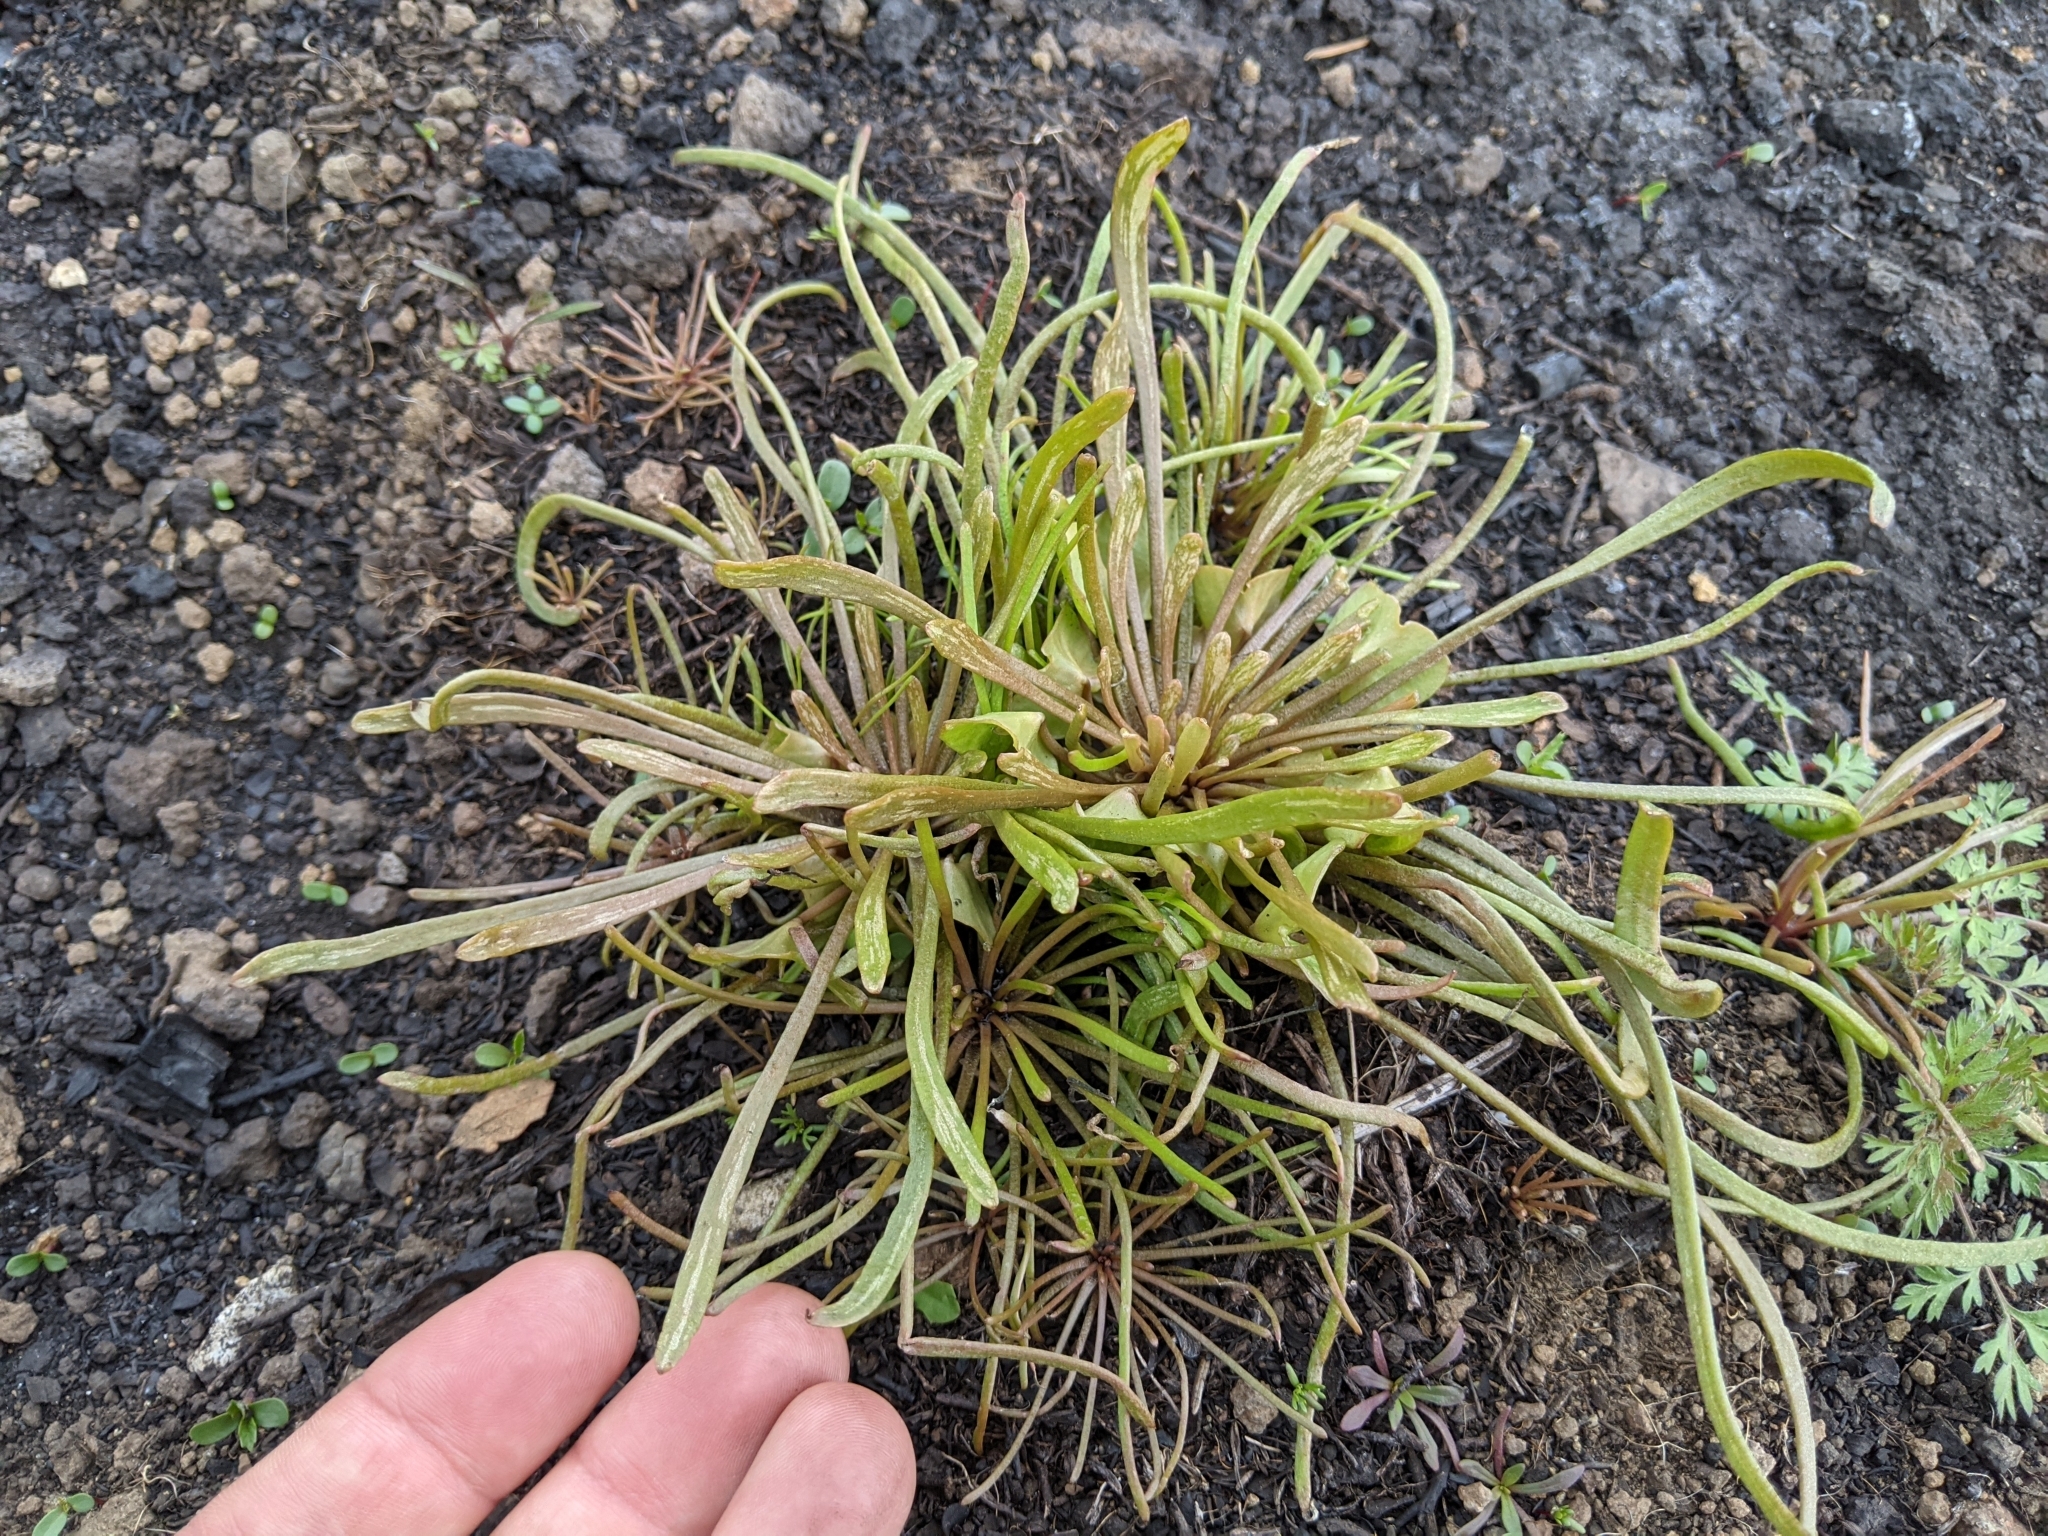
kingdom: Plantae
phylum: Tracheophyta
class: Magnoliopsida
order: Caryophyllales
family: Montiaceae
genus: Claytonia
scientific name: Claytonia parviflora
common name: Indian-lettuce
